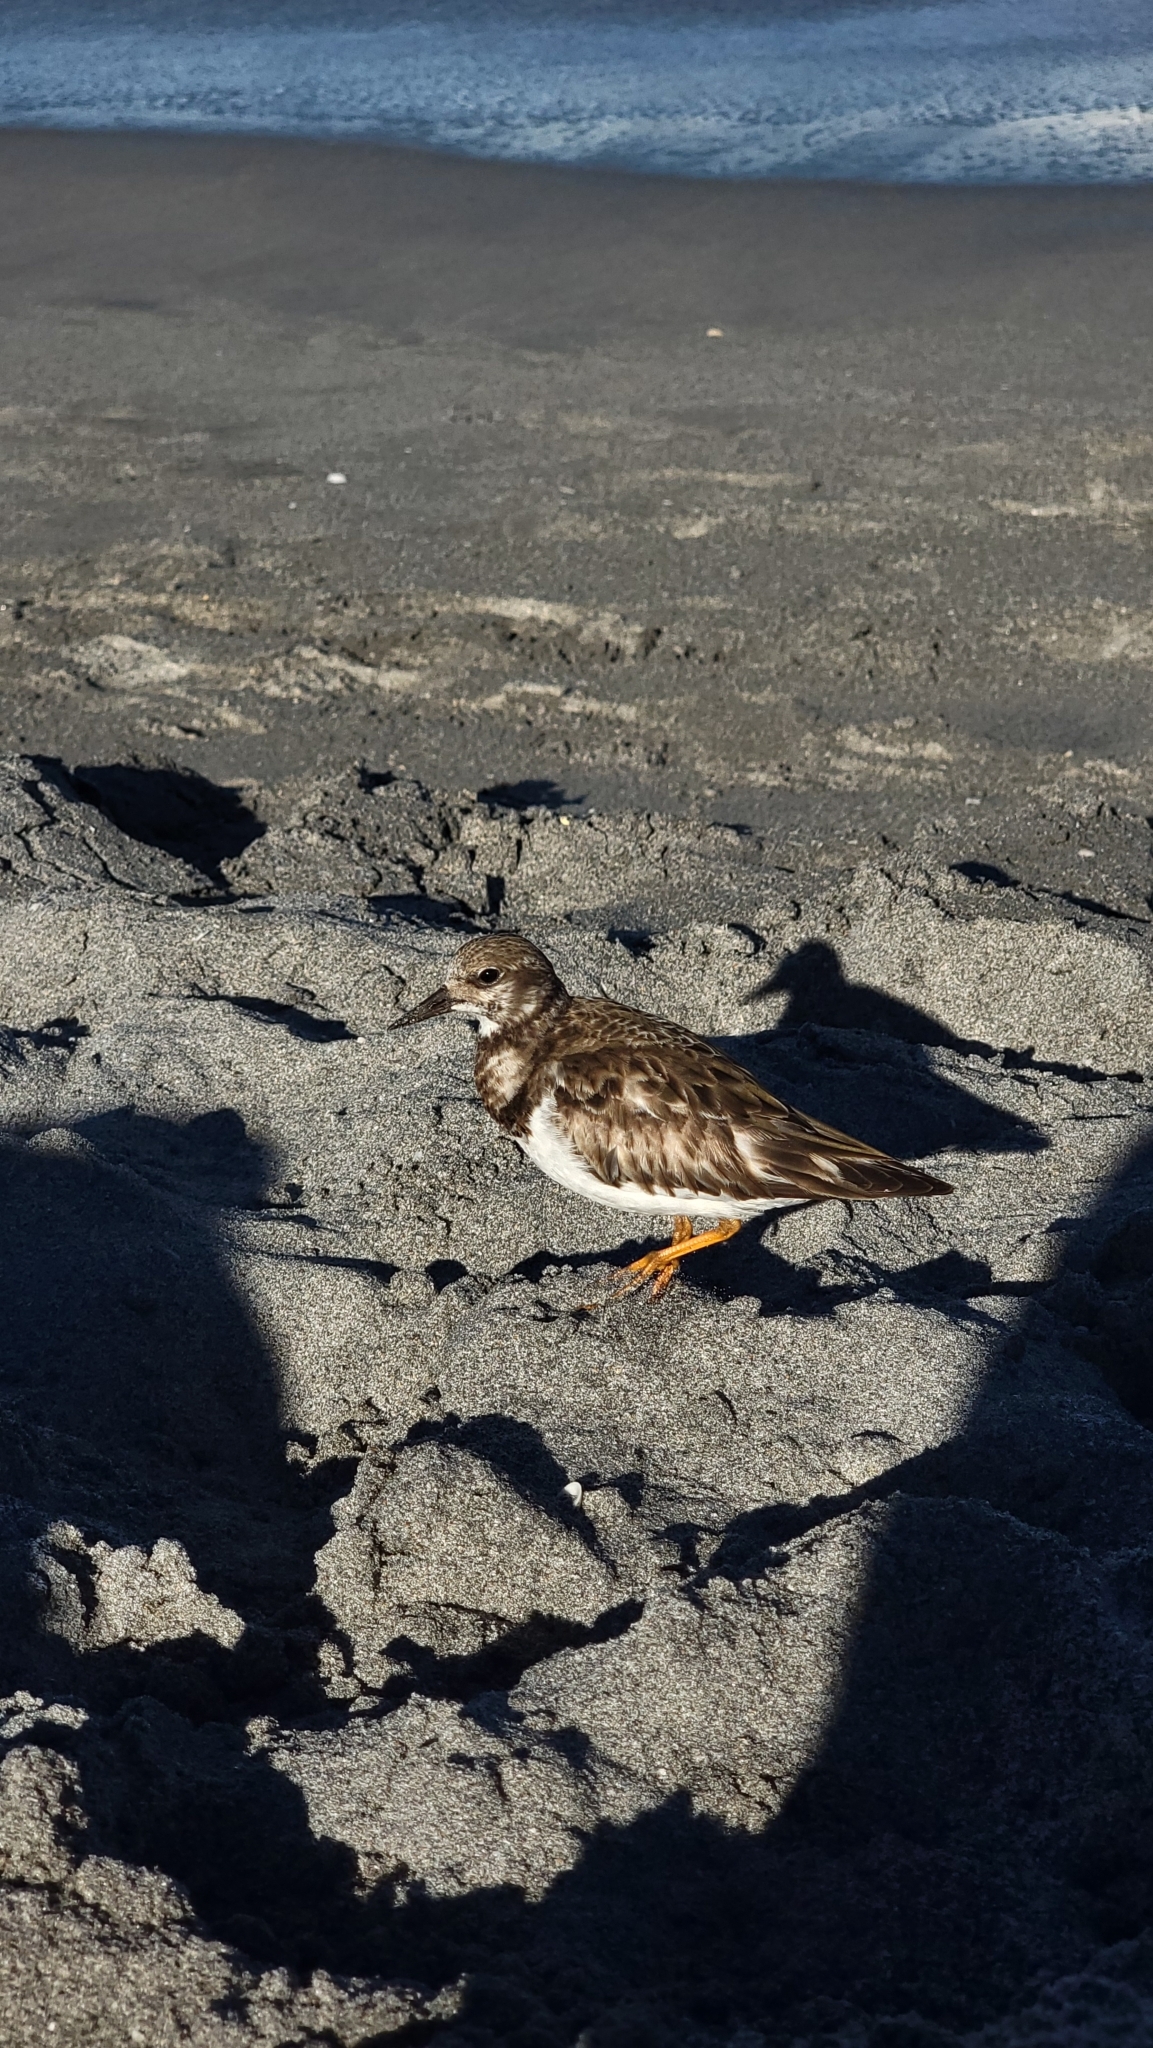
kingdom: Animalia
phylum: Chordata
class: Aves
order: Charadriiformes
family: Scolopacidae
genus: Arenaria
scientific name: Arenaria interpres
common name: Ruddy turnstone
